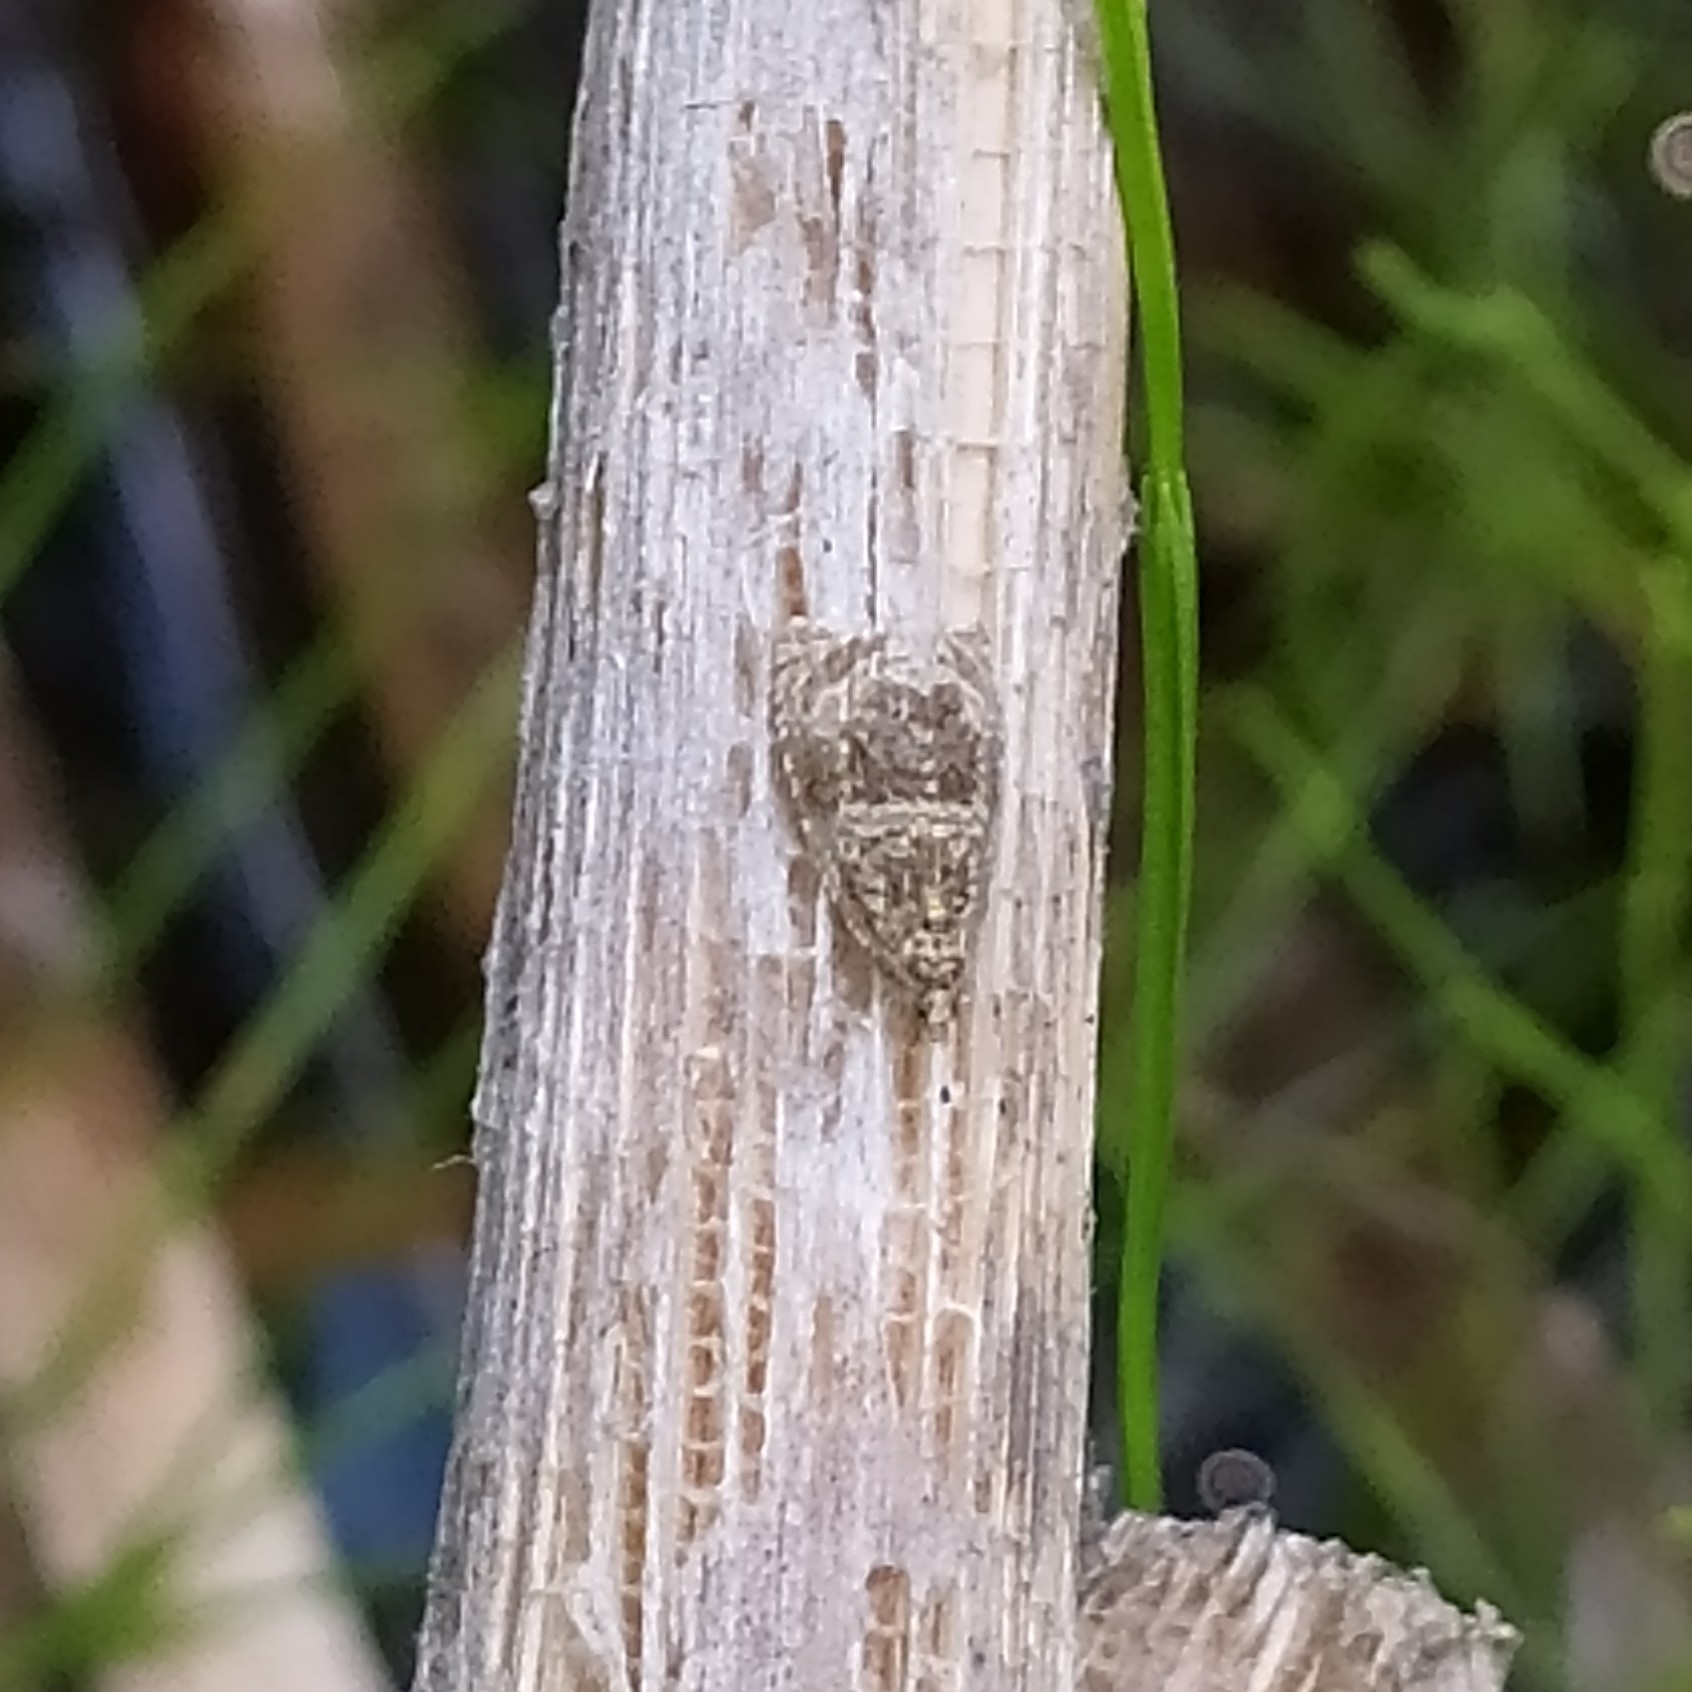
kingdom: Animalia
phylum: Arthropoda
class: Insecta
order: Lepidoptera
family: Tortricidae
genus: Syricoris
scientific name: Syricoris lacunana
